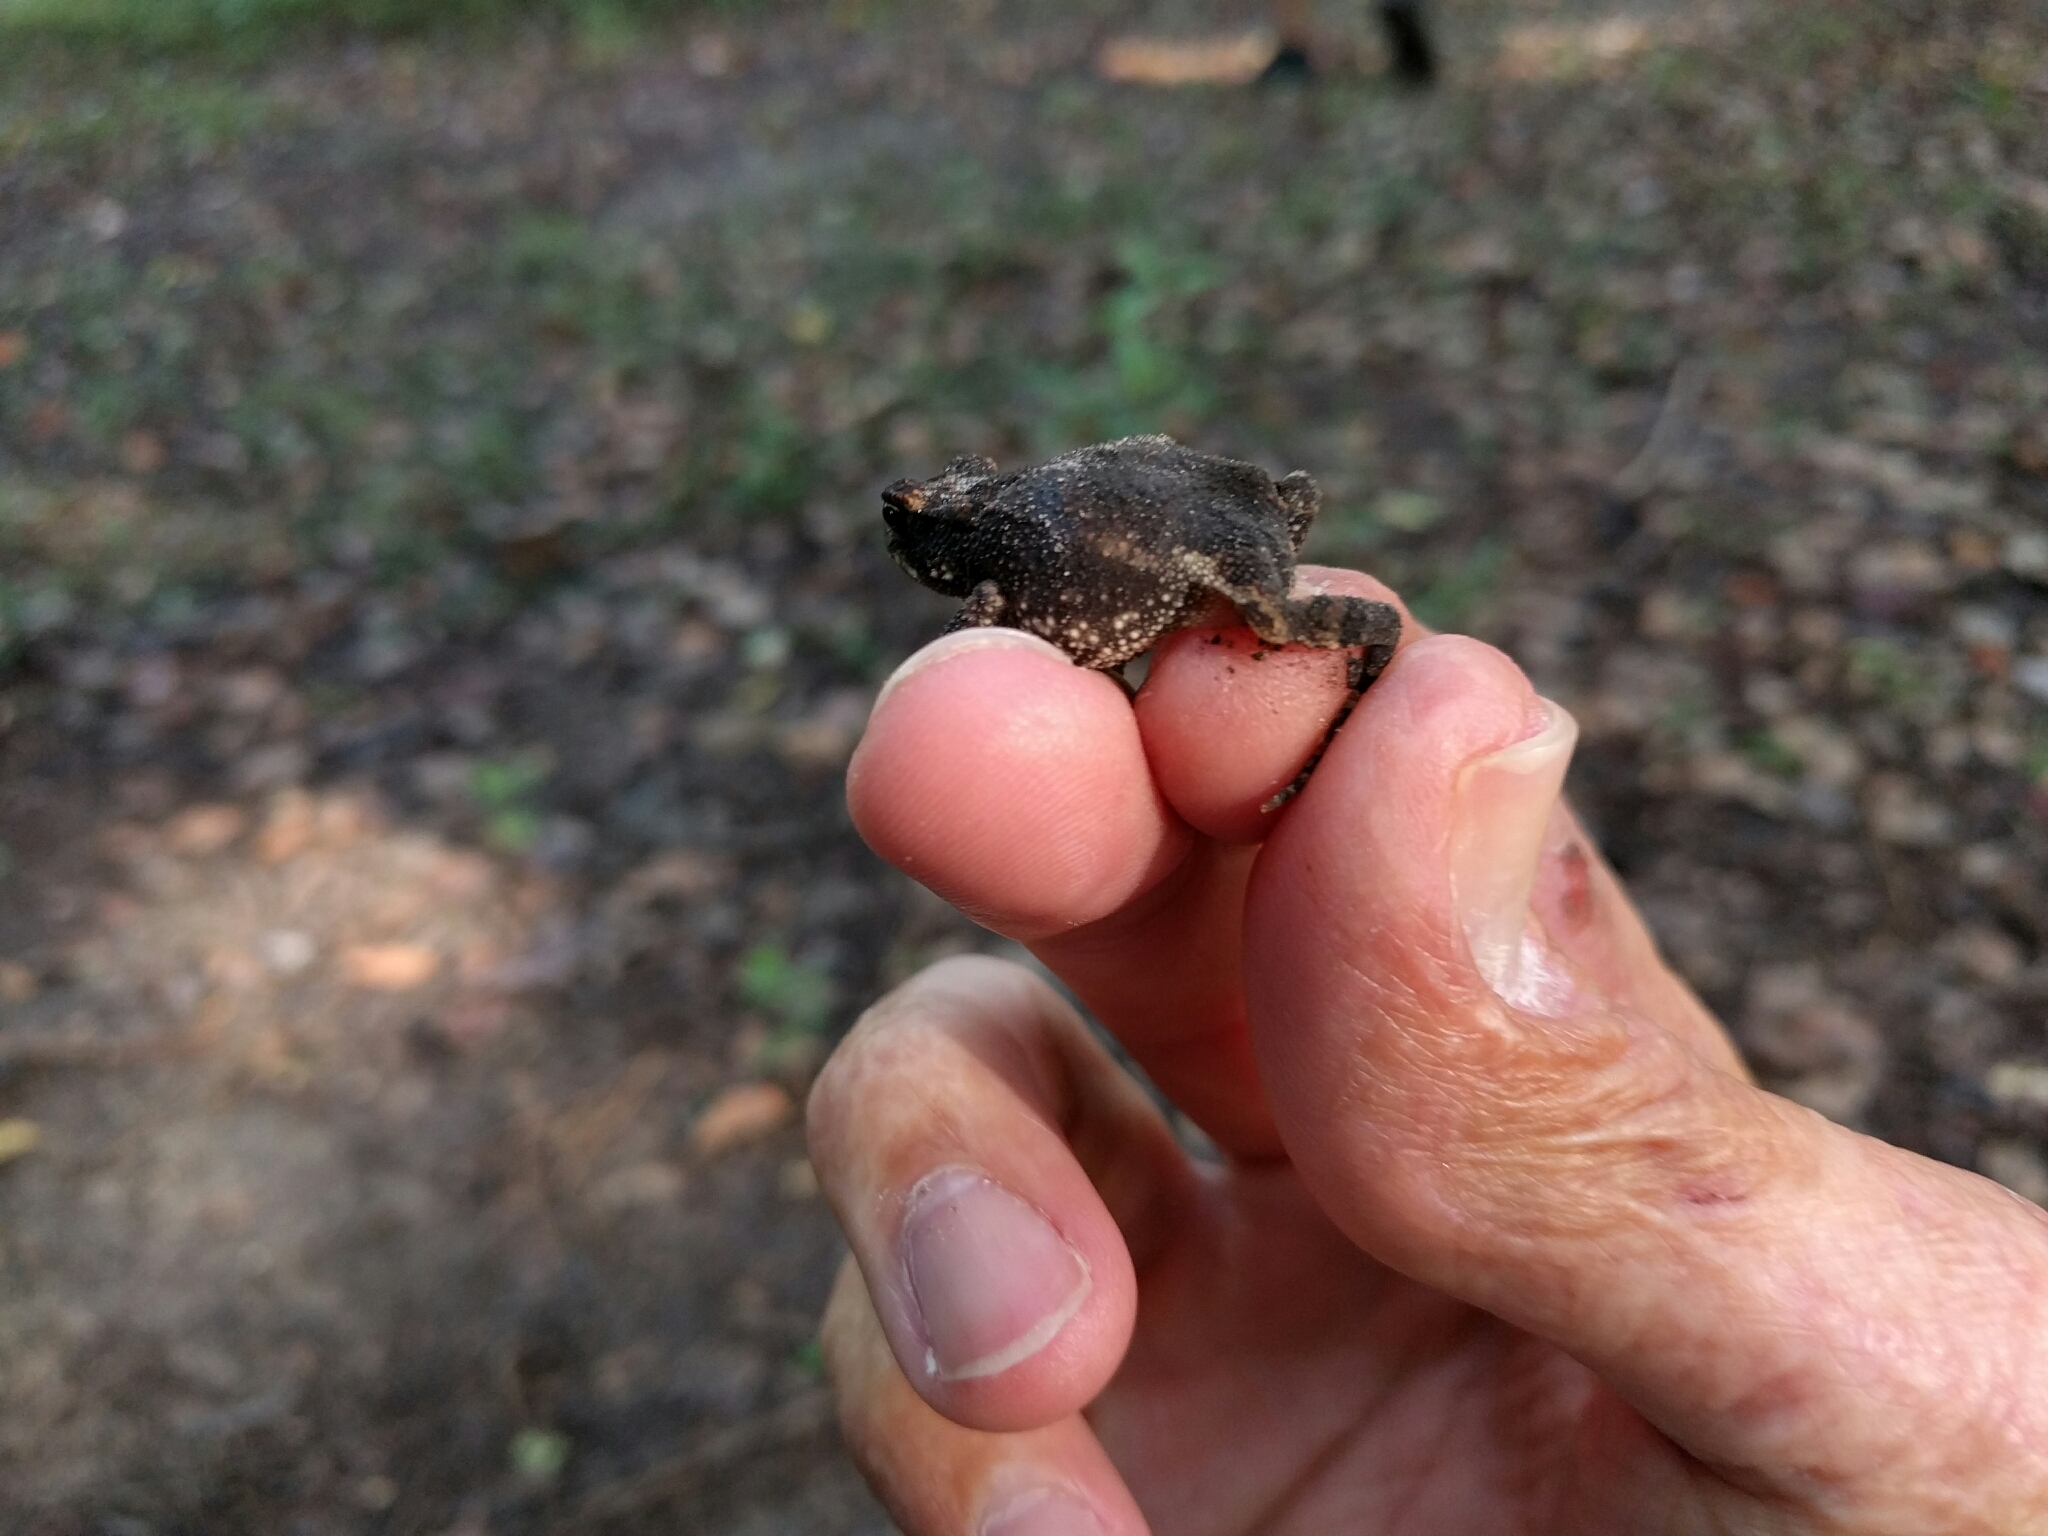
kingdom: Animalia
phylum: Chordata
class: Amphibia
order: Anura
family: Bufonidae
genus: Incilius
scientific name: Incilius nebulifer
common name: Gulf coast toad
